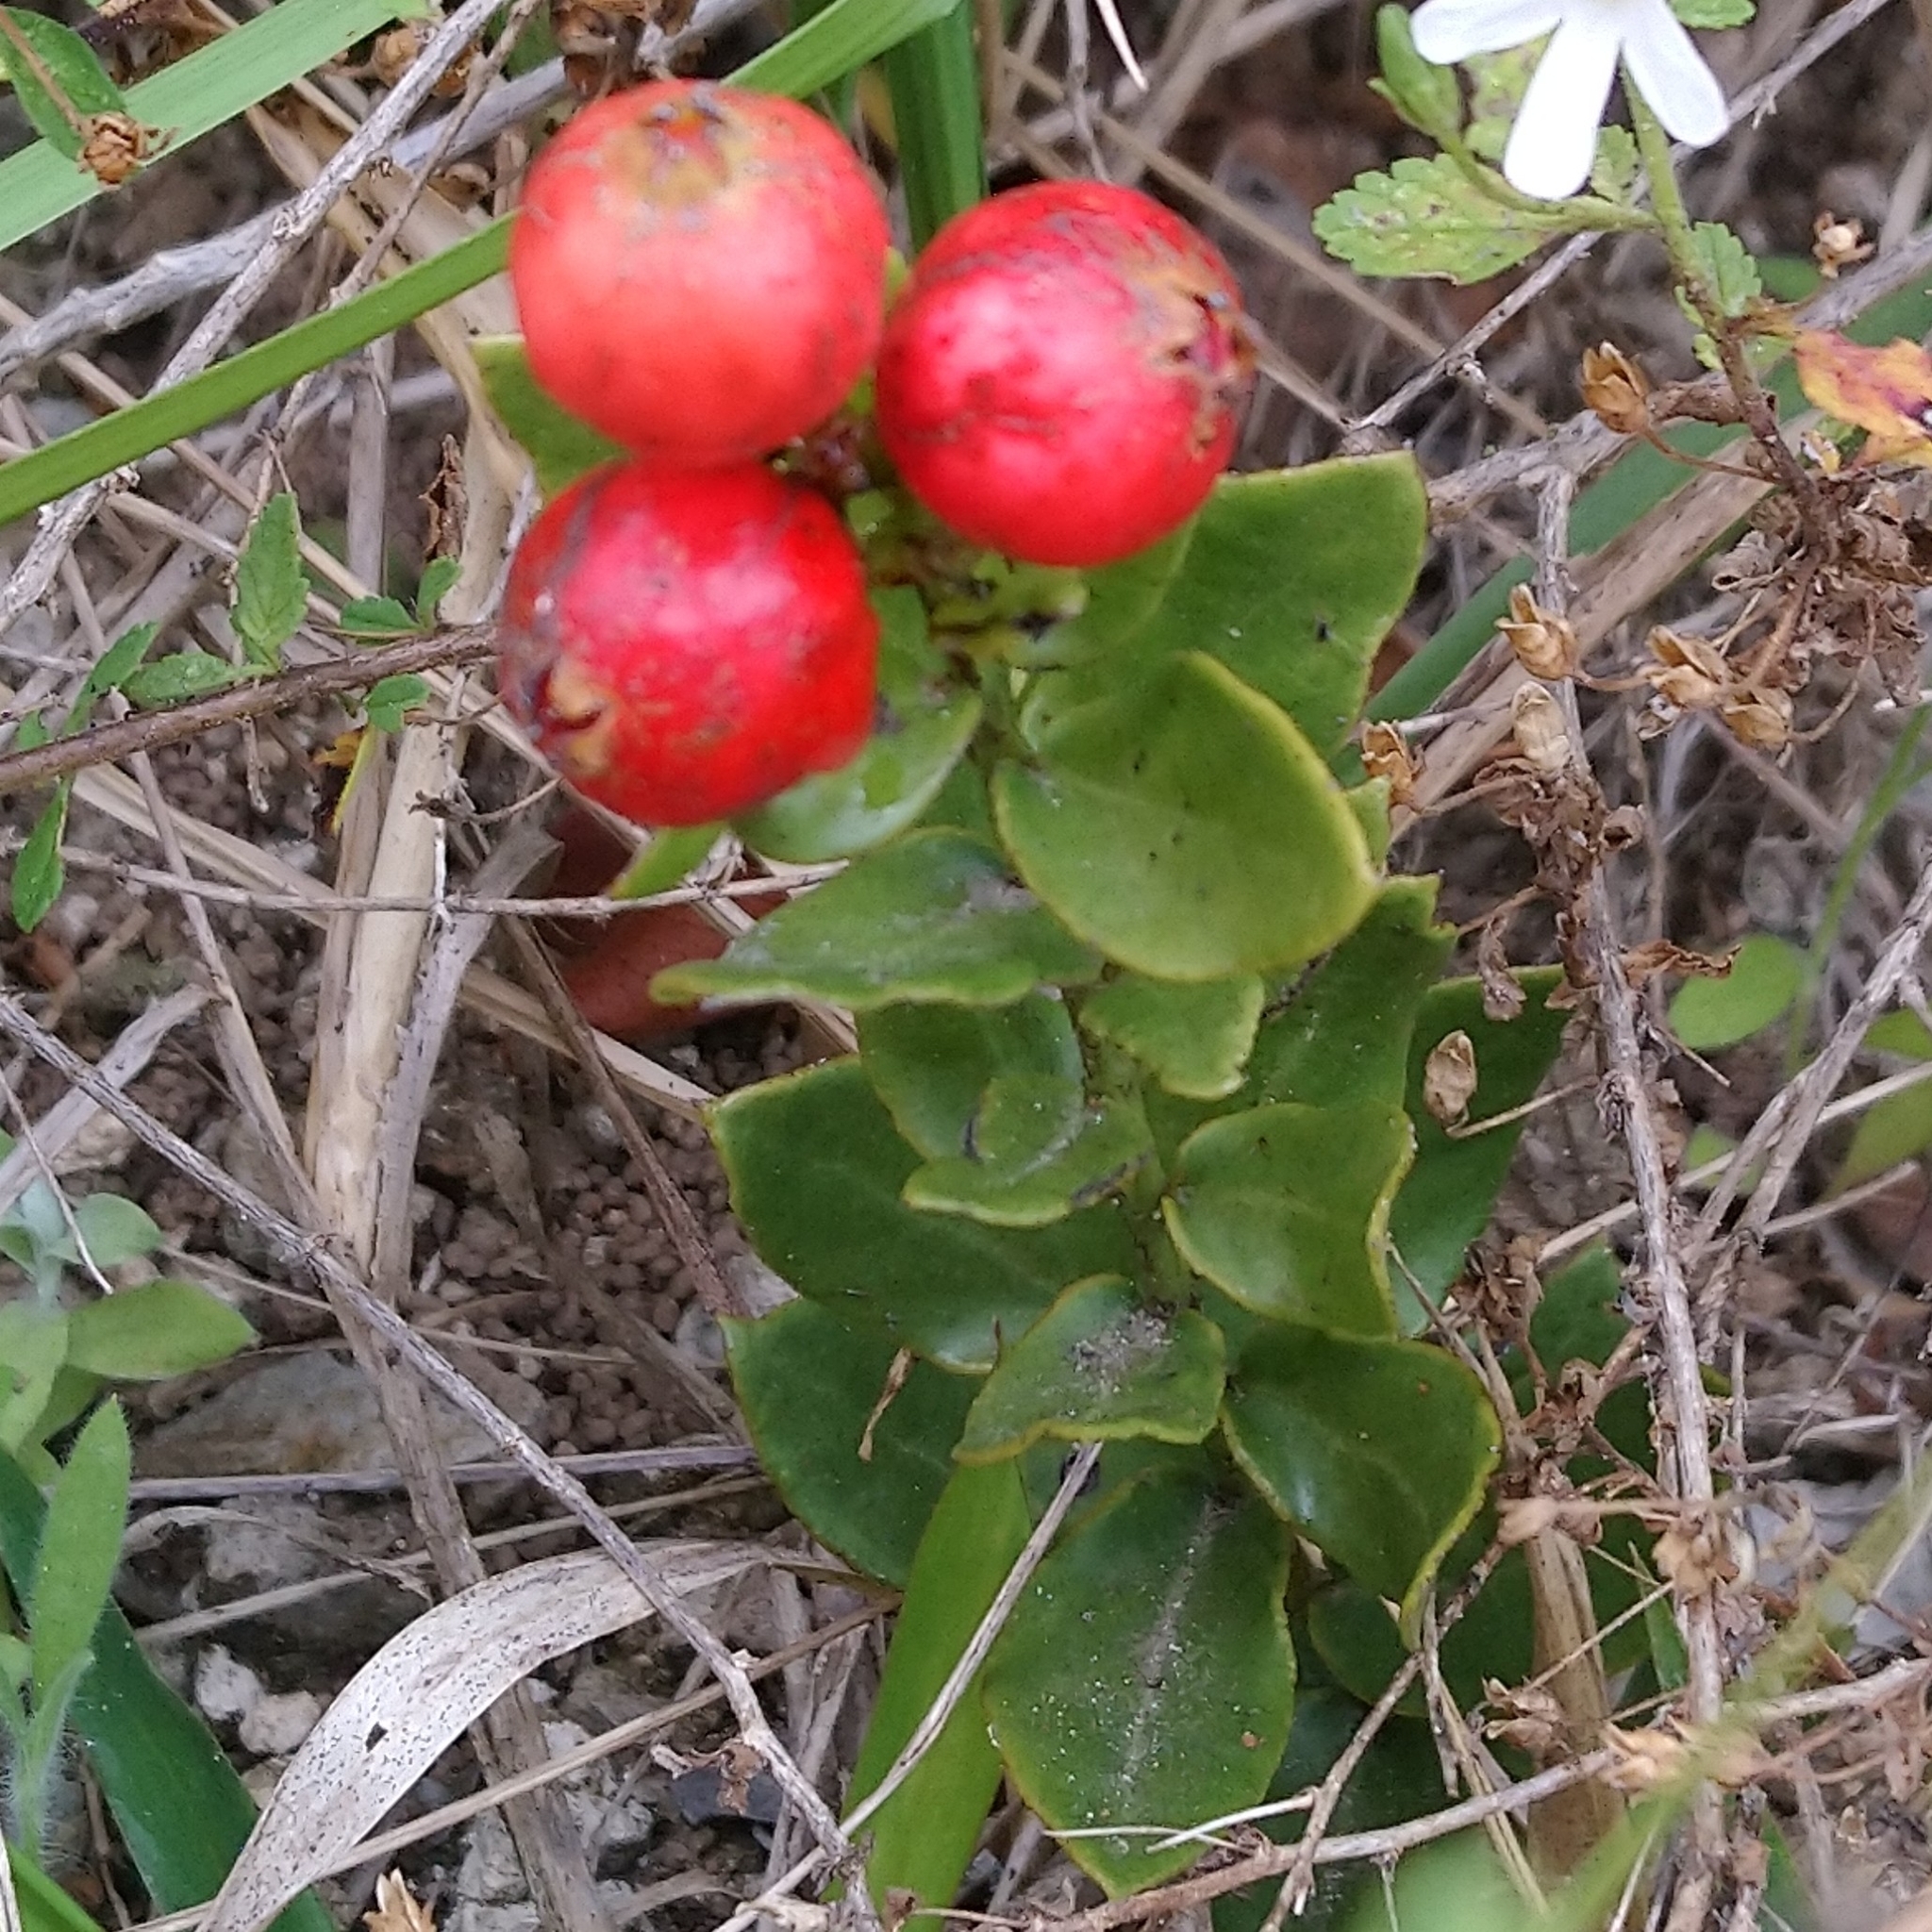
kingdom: Plantae
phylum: Tracheophyta
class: Magnoliopsida
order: Santalales
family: Santalaceae
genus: Rhoiacarpos
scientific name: Rhoiacarpos capensis
